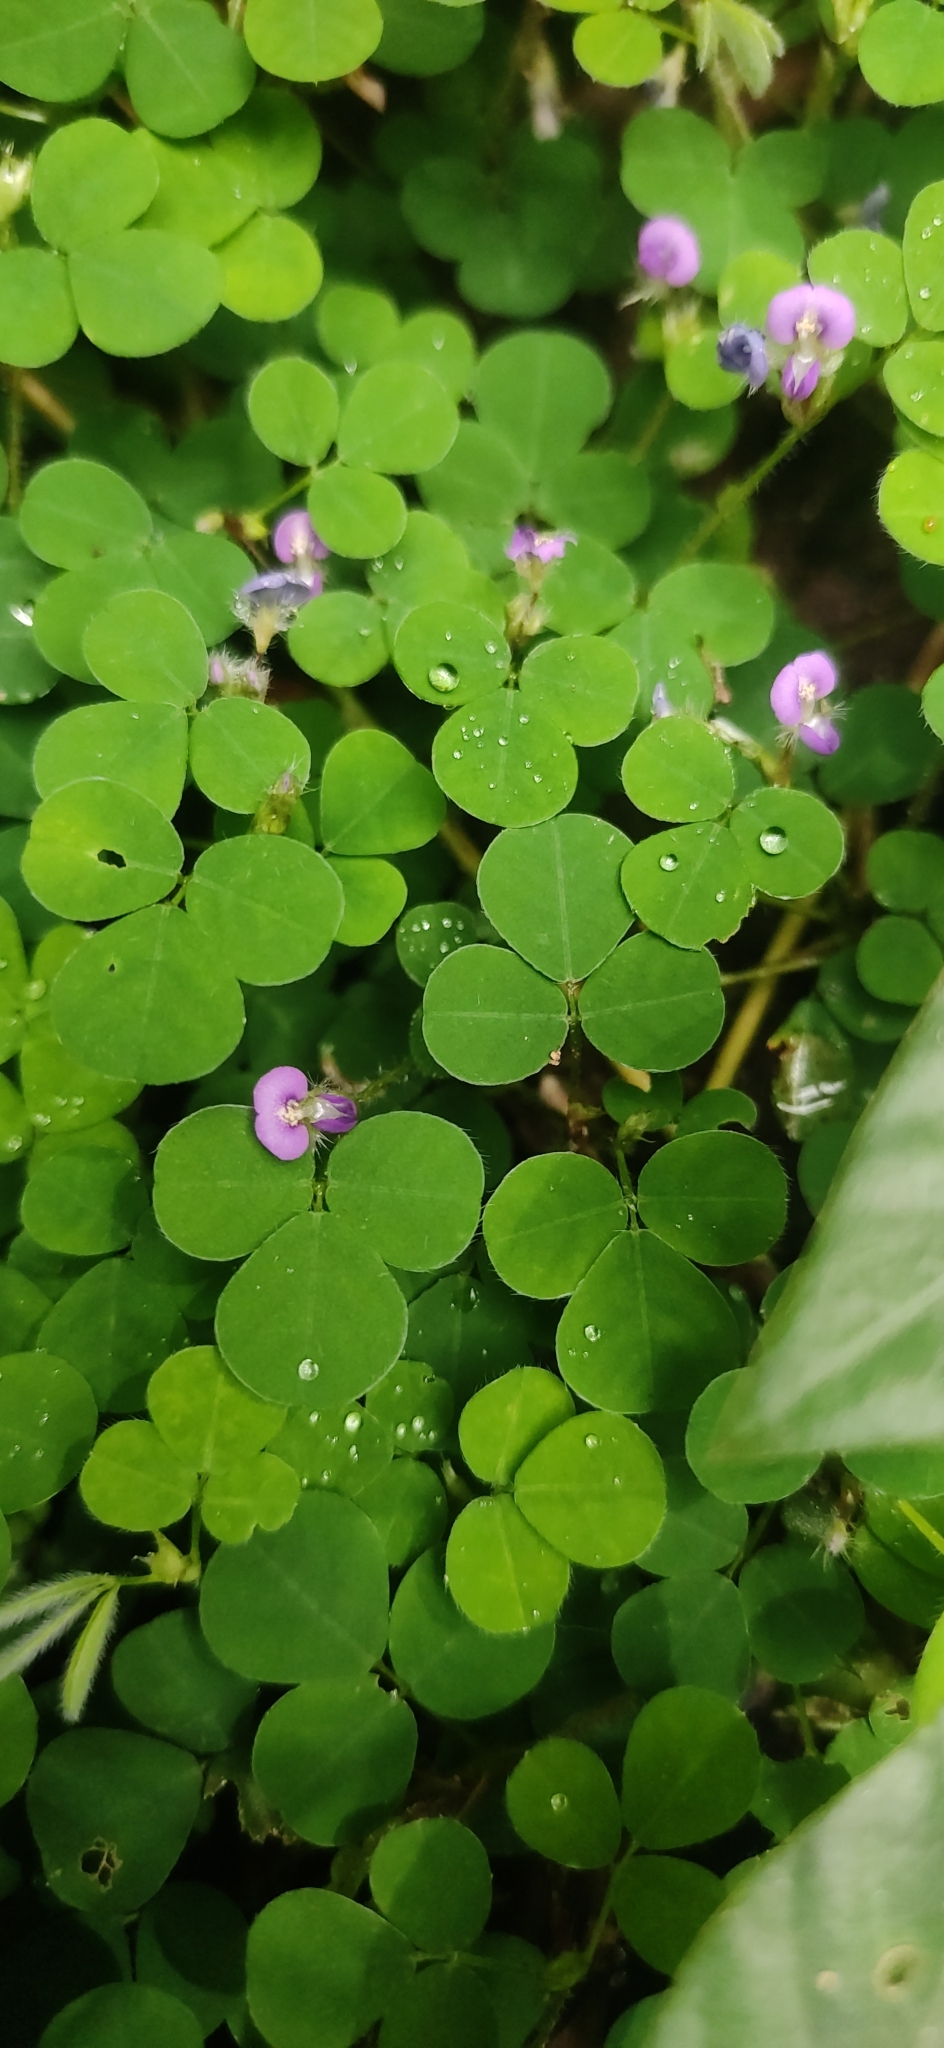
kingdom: Plantae
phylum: Tracheophyta
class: Magnoliopsida
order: Fabales
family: Fabaceae
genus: Grona
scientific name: Grona triflora
